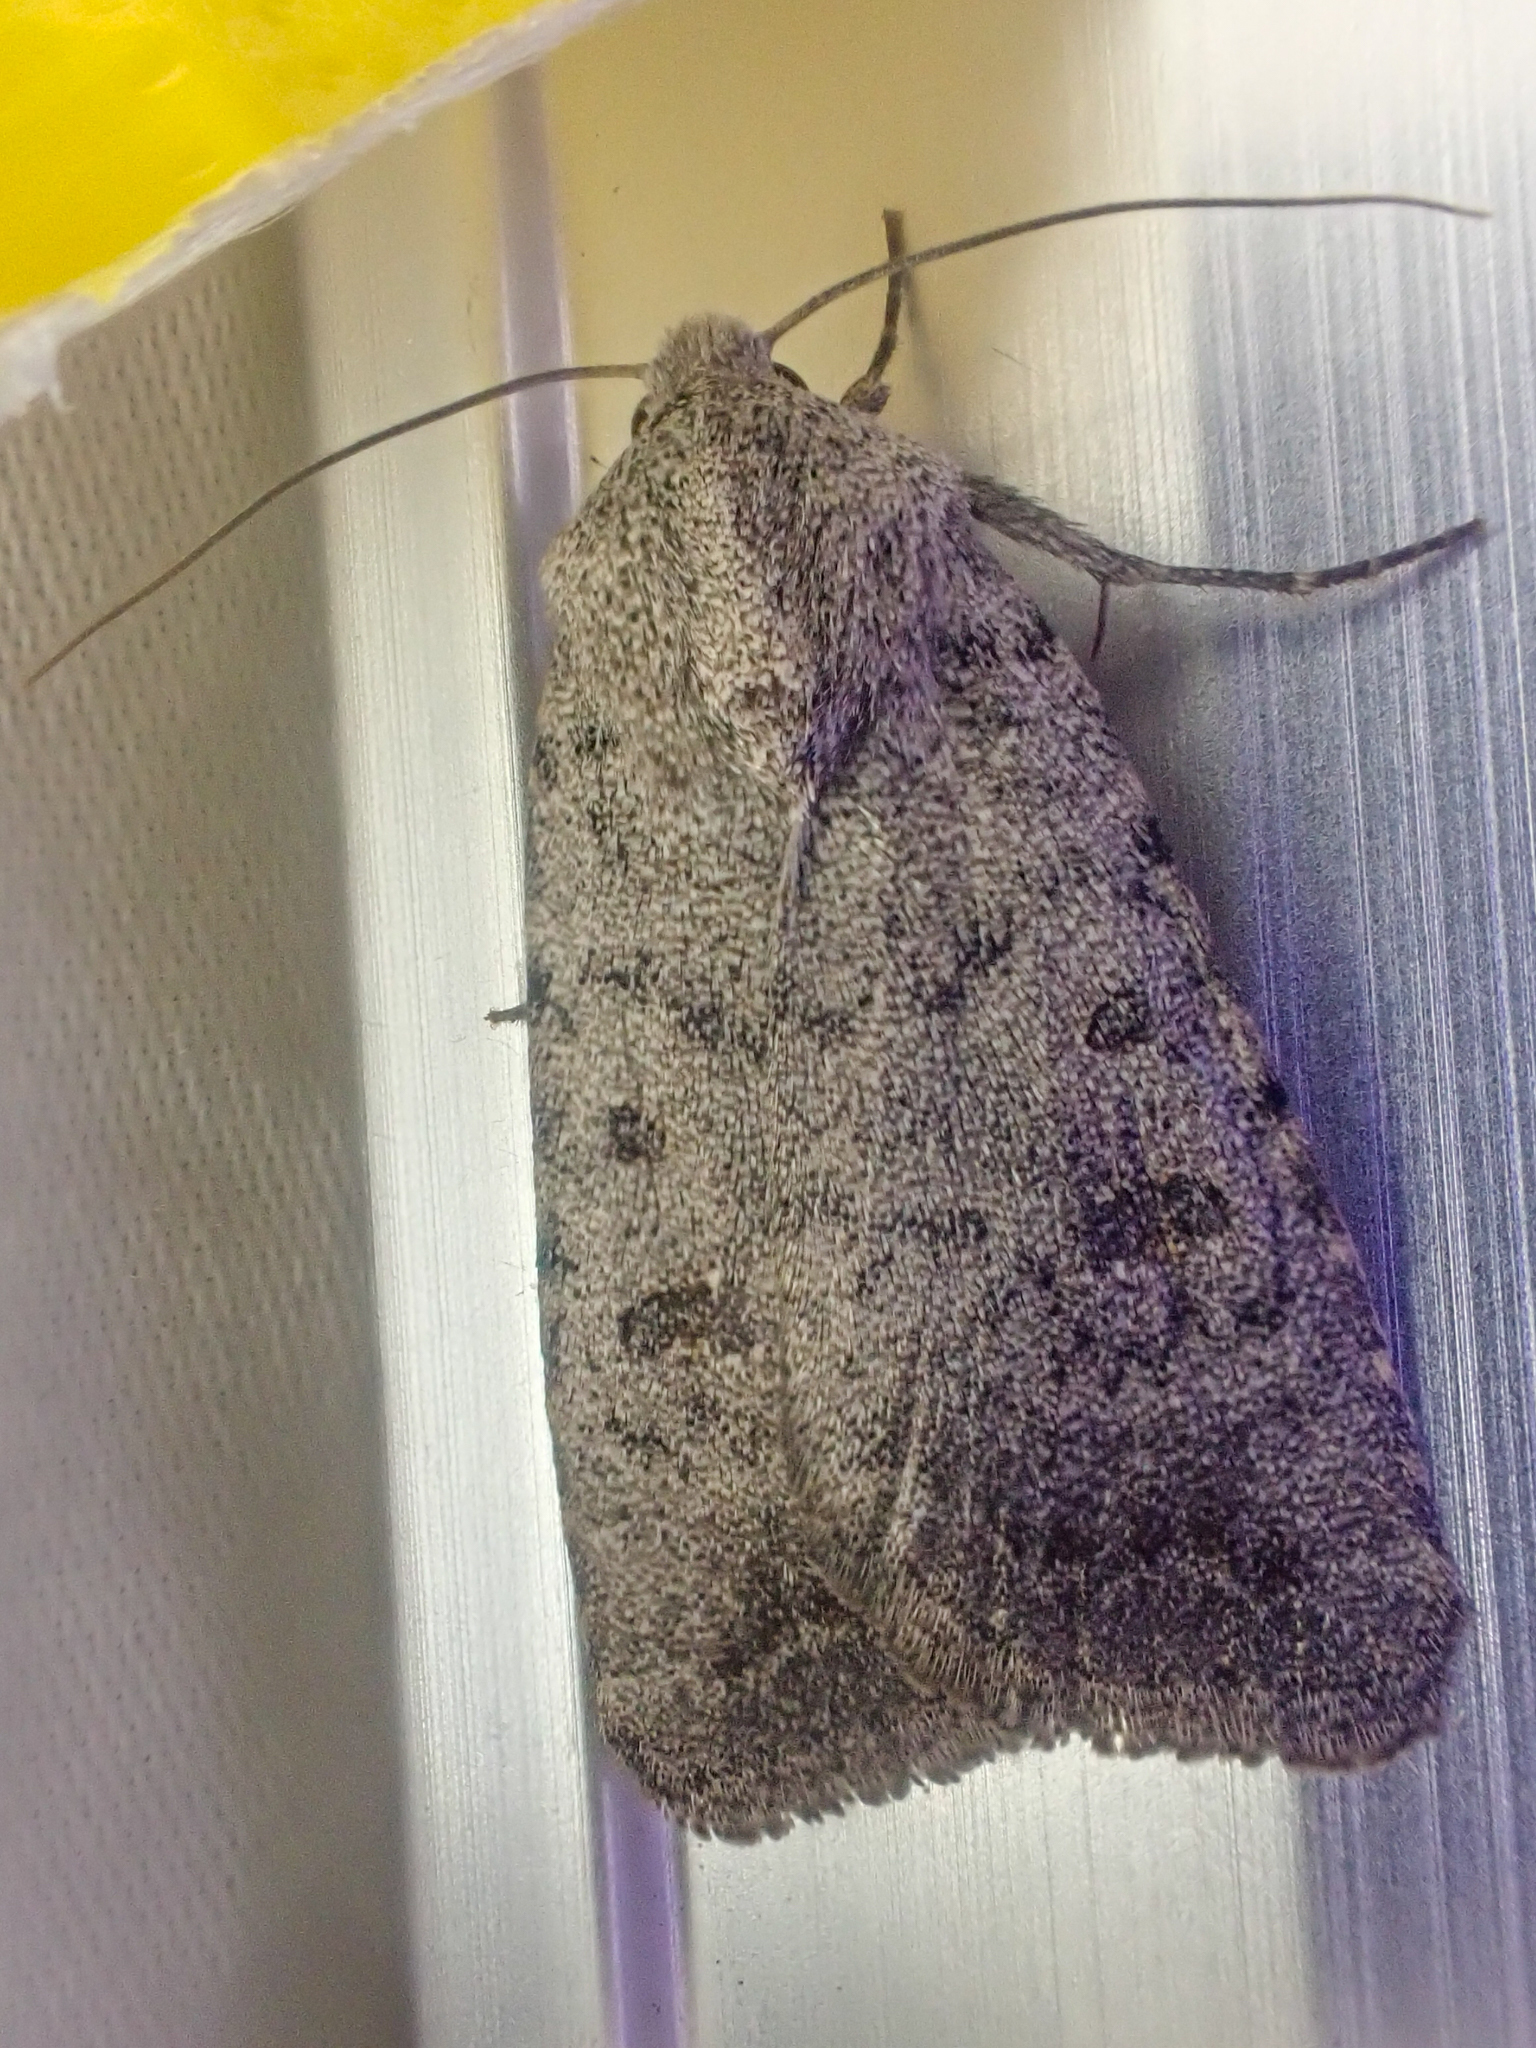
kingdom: Animalia
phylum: Arthropoda
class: Insecta
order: Lepidoptera
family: Noctuidae
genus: Caradrina
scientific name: Caradrina montana
